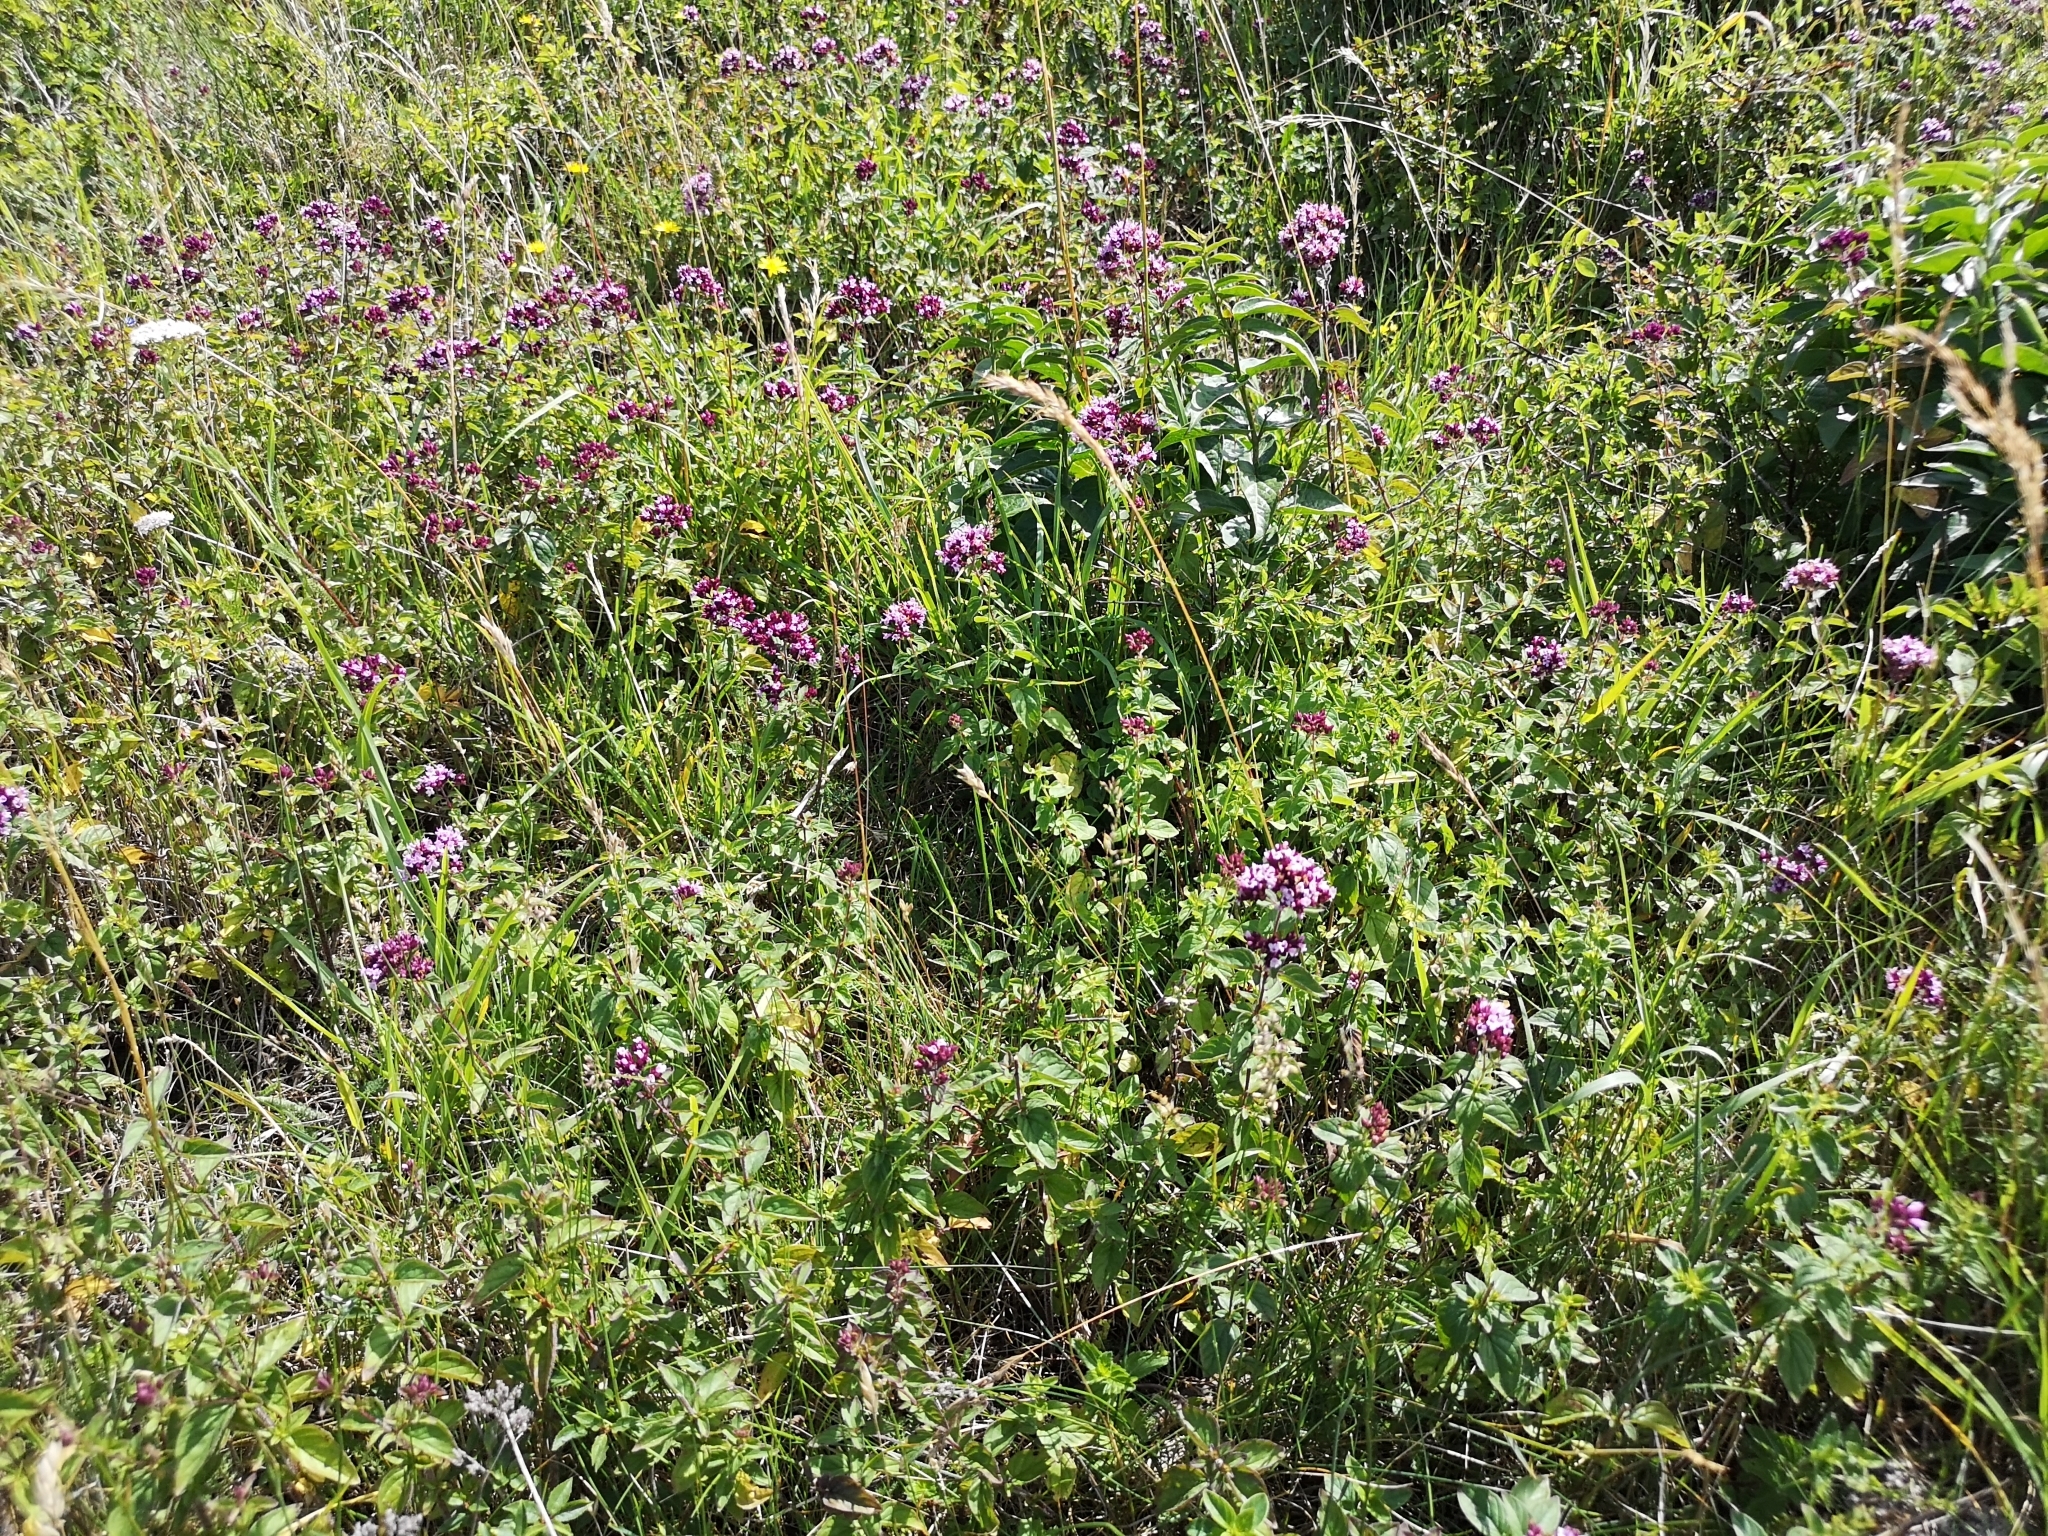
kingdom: Plantae
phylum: Tracheophyta
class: Magnoliopsida
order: Lamiales
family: Lamiaceae
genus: Origanum
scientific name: Origanum vulgare
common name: Wild marjoram
